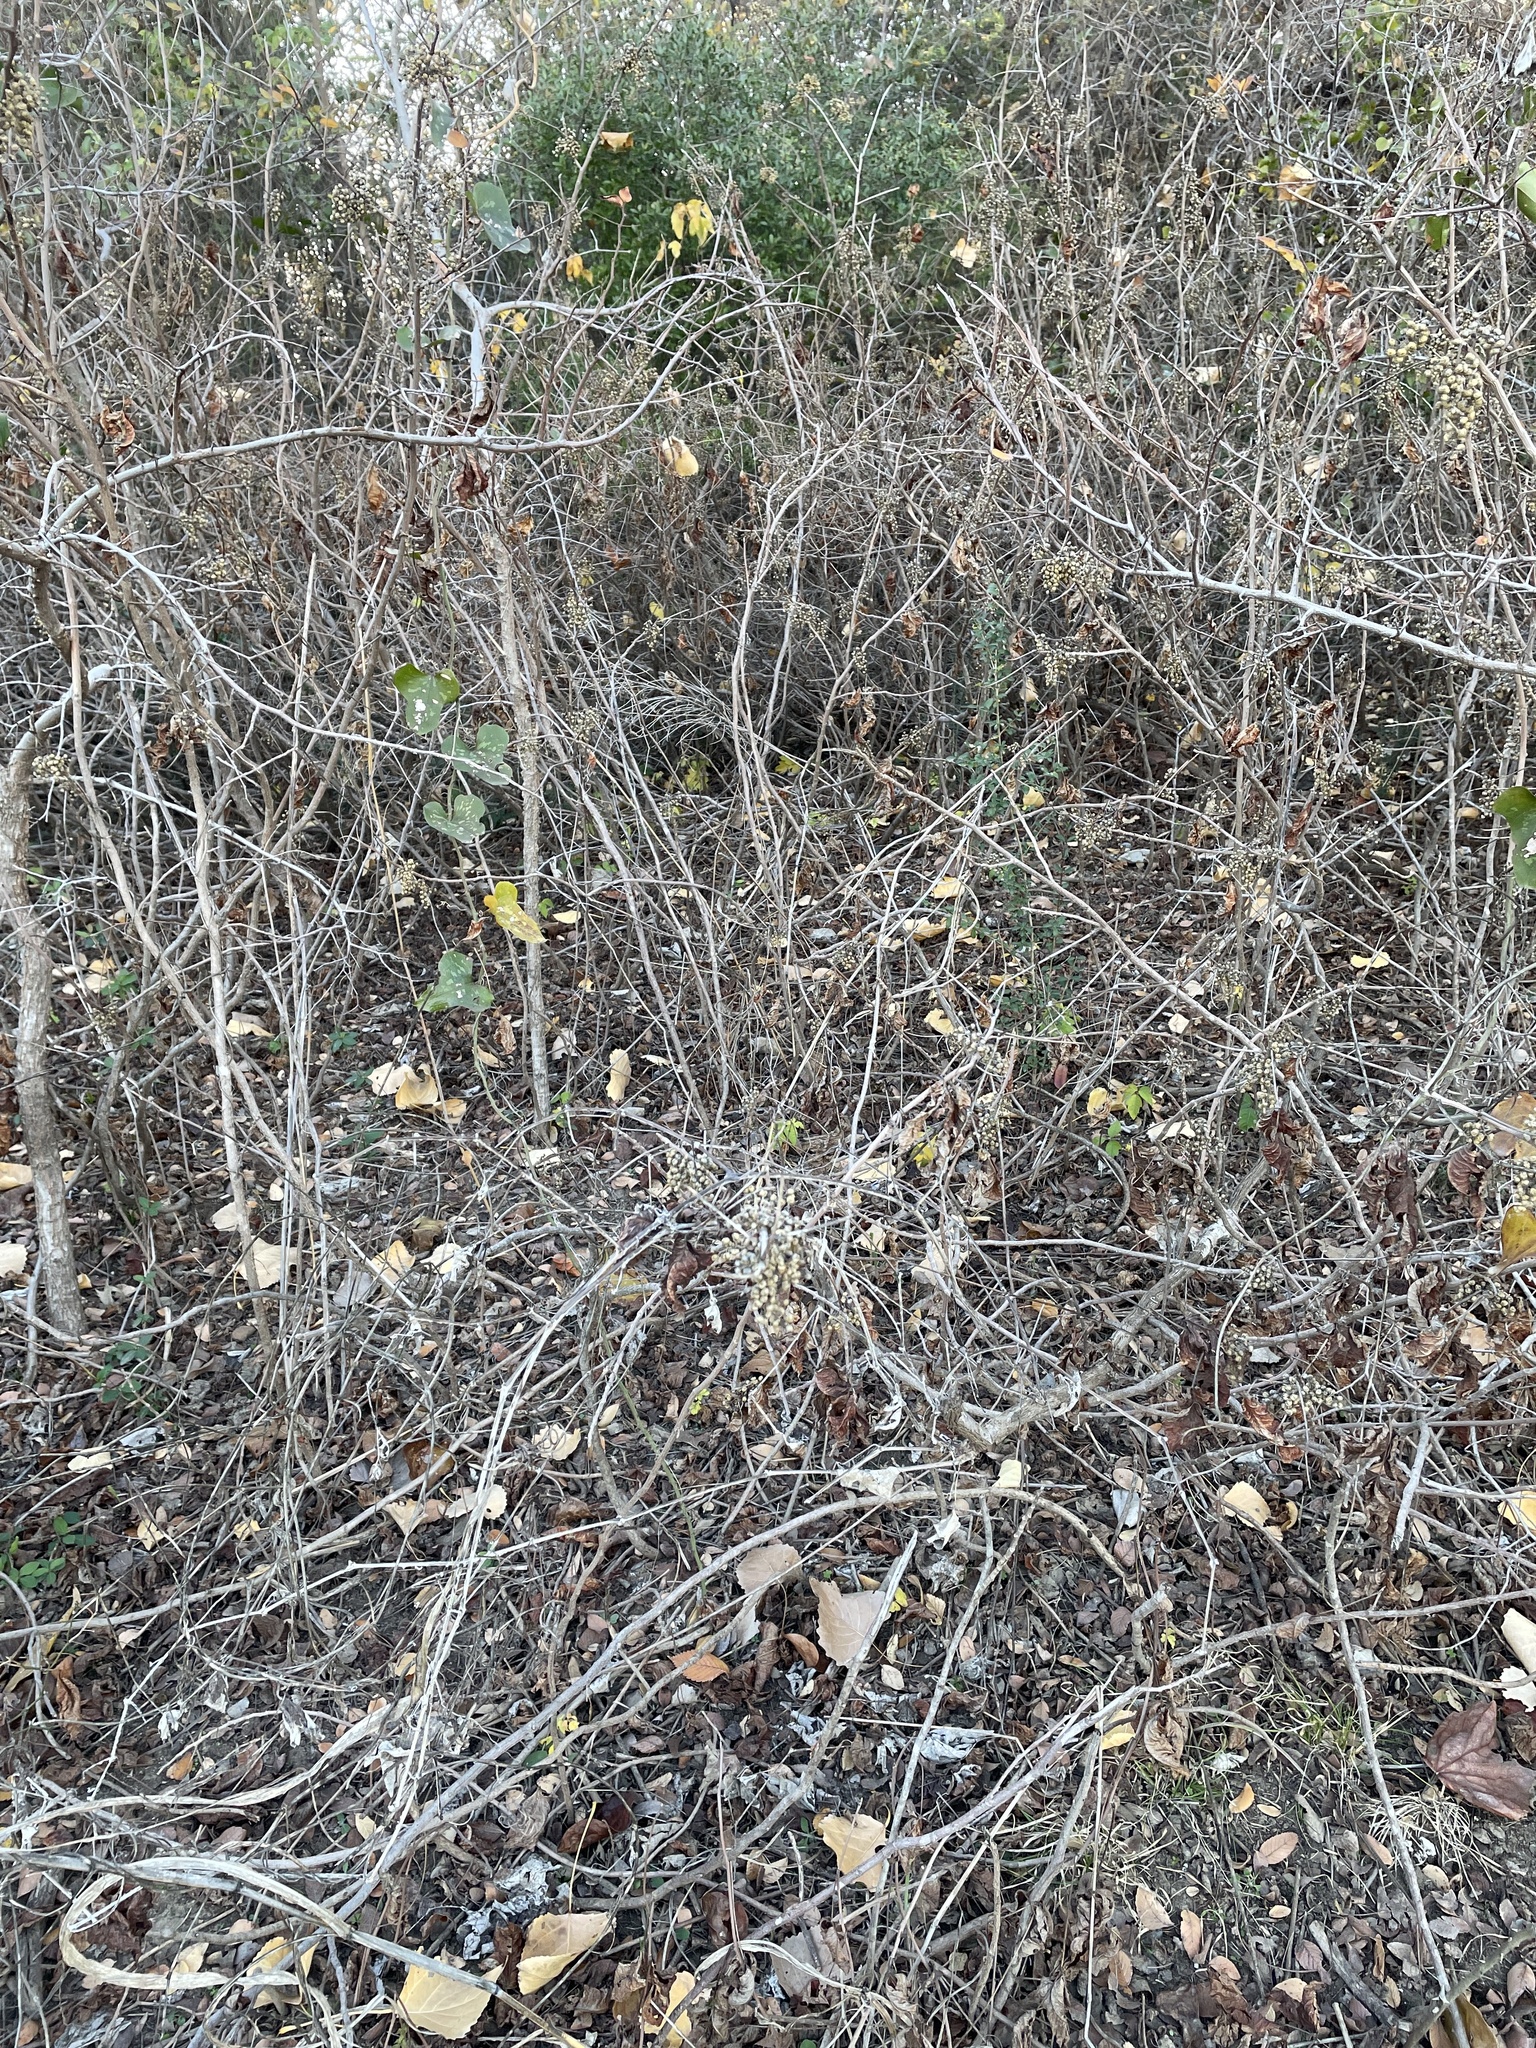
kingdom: Plantae
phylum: Tracheophyta
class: Magnoliopsida
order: Sapindales
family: Anacardiaceae
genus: Toxicodendron
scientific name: Toxicodendron radicans
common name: Poison ivy
